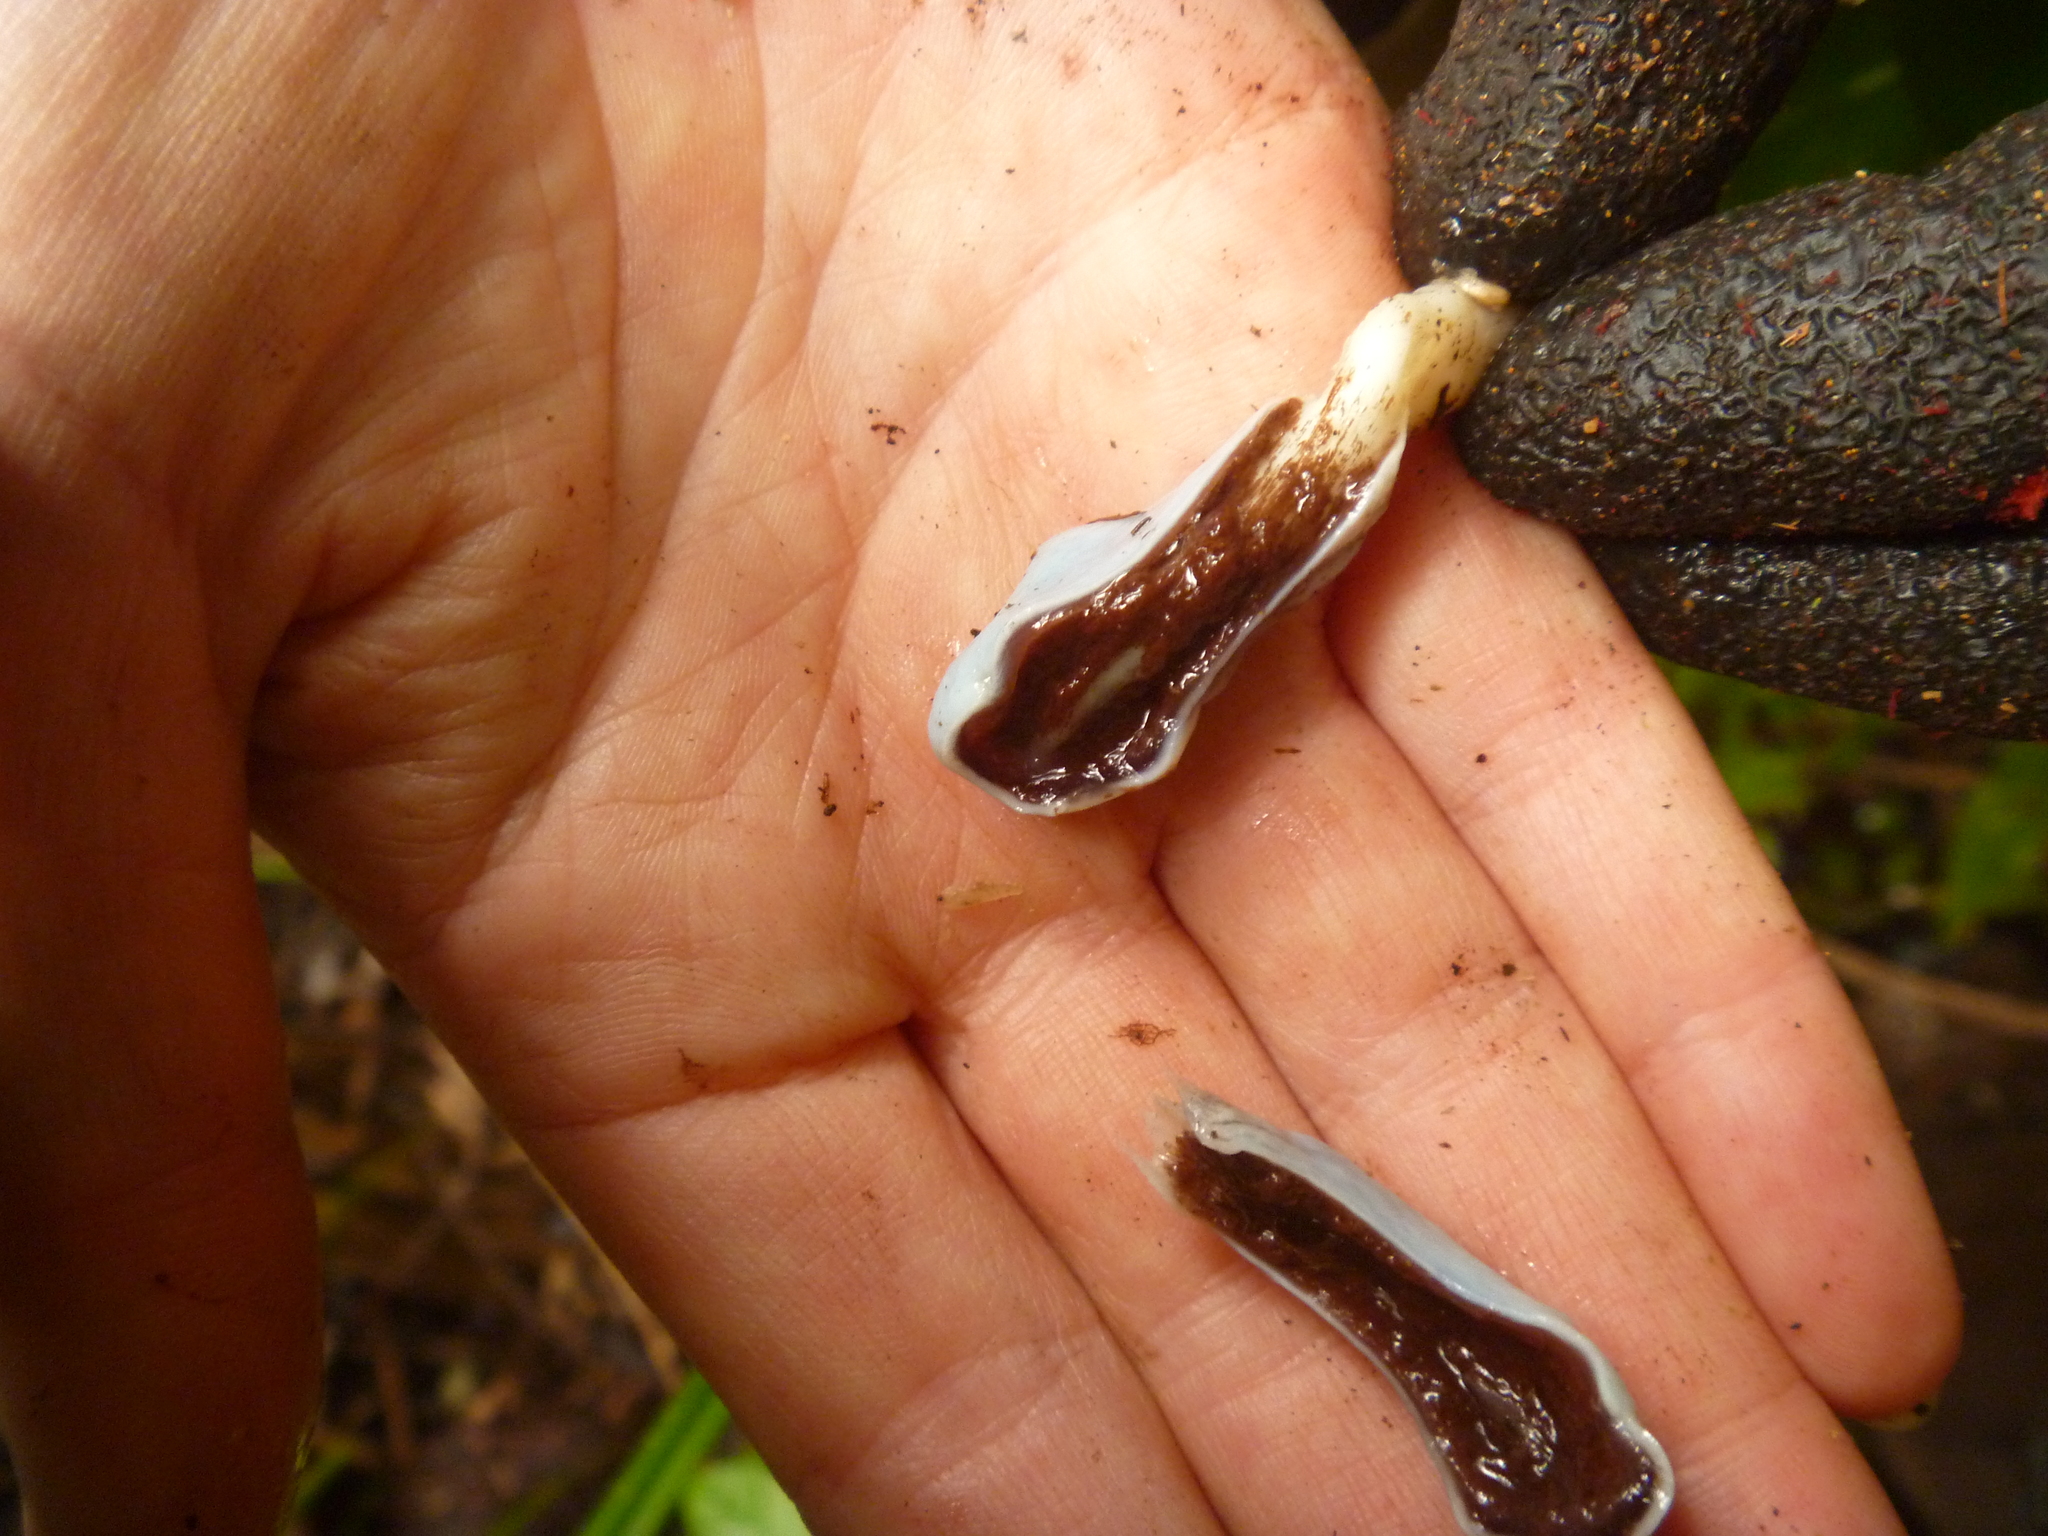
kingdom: Fungi
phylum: Basidiomycota
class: Agaricomycetes
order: Agaricales
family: Agaricaceae
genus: Clavogaster
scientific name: Clavogaster virescens
